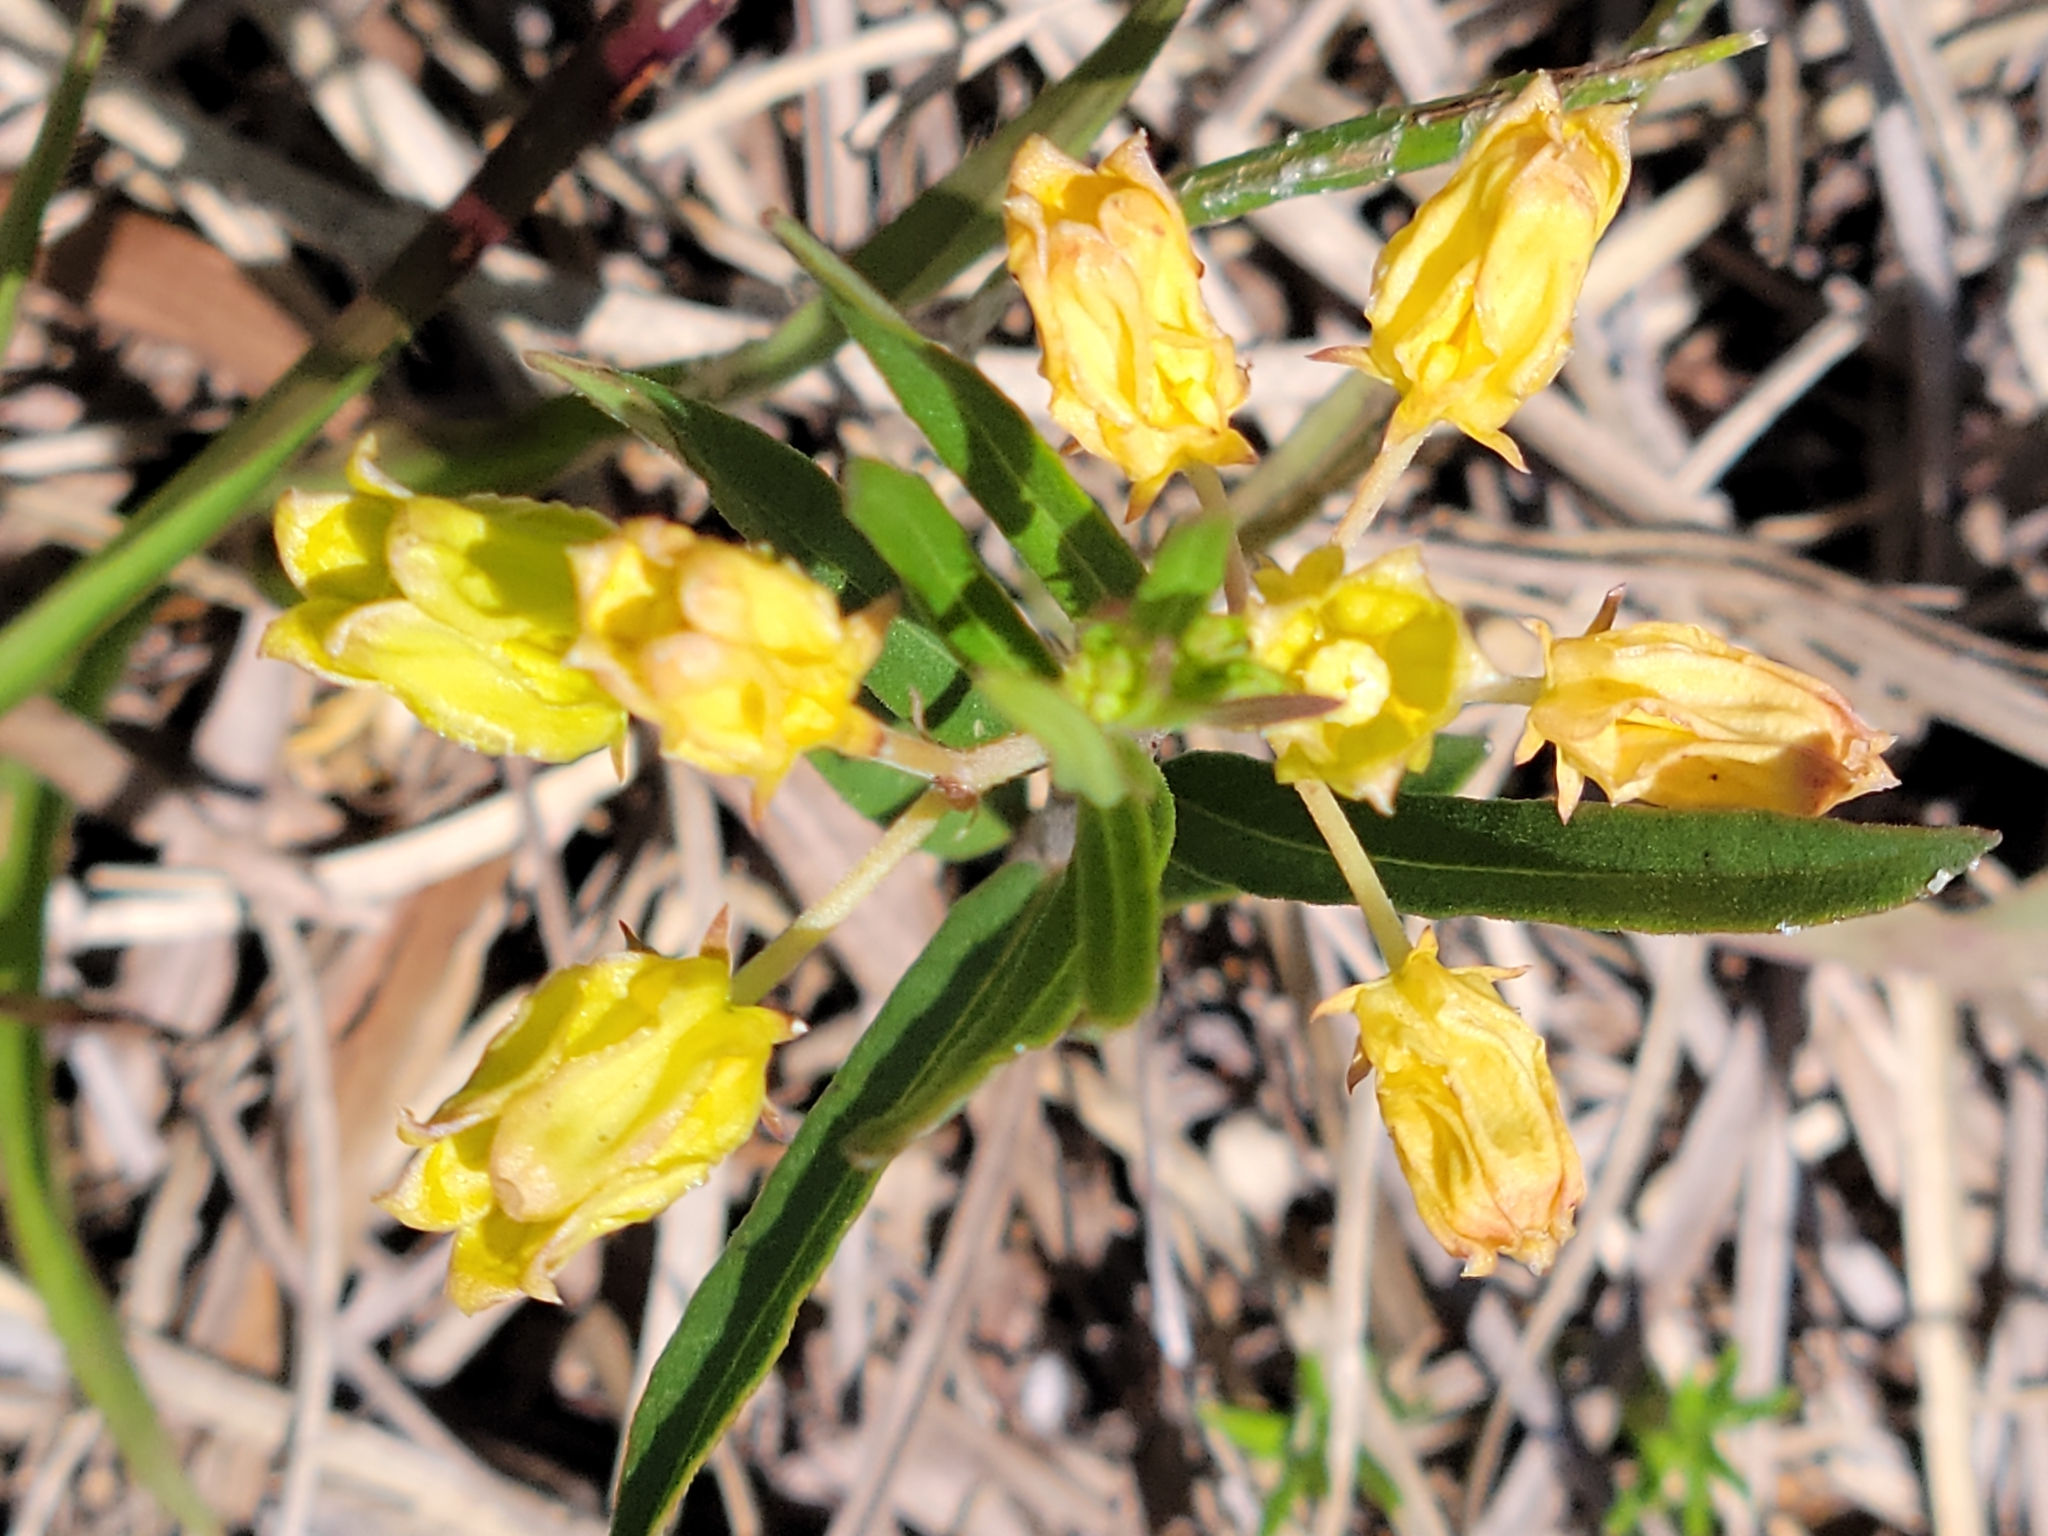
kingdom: Plantae
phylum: Tracheophyta
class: Magnoliopsida
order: Gentianales
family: Apocynaceae
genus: Asclepias
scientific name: Asclepias pedicellata
